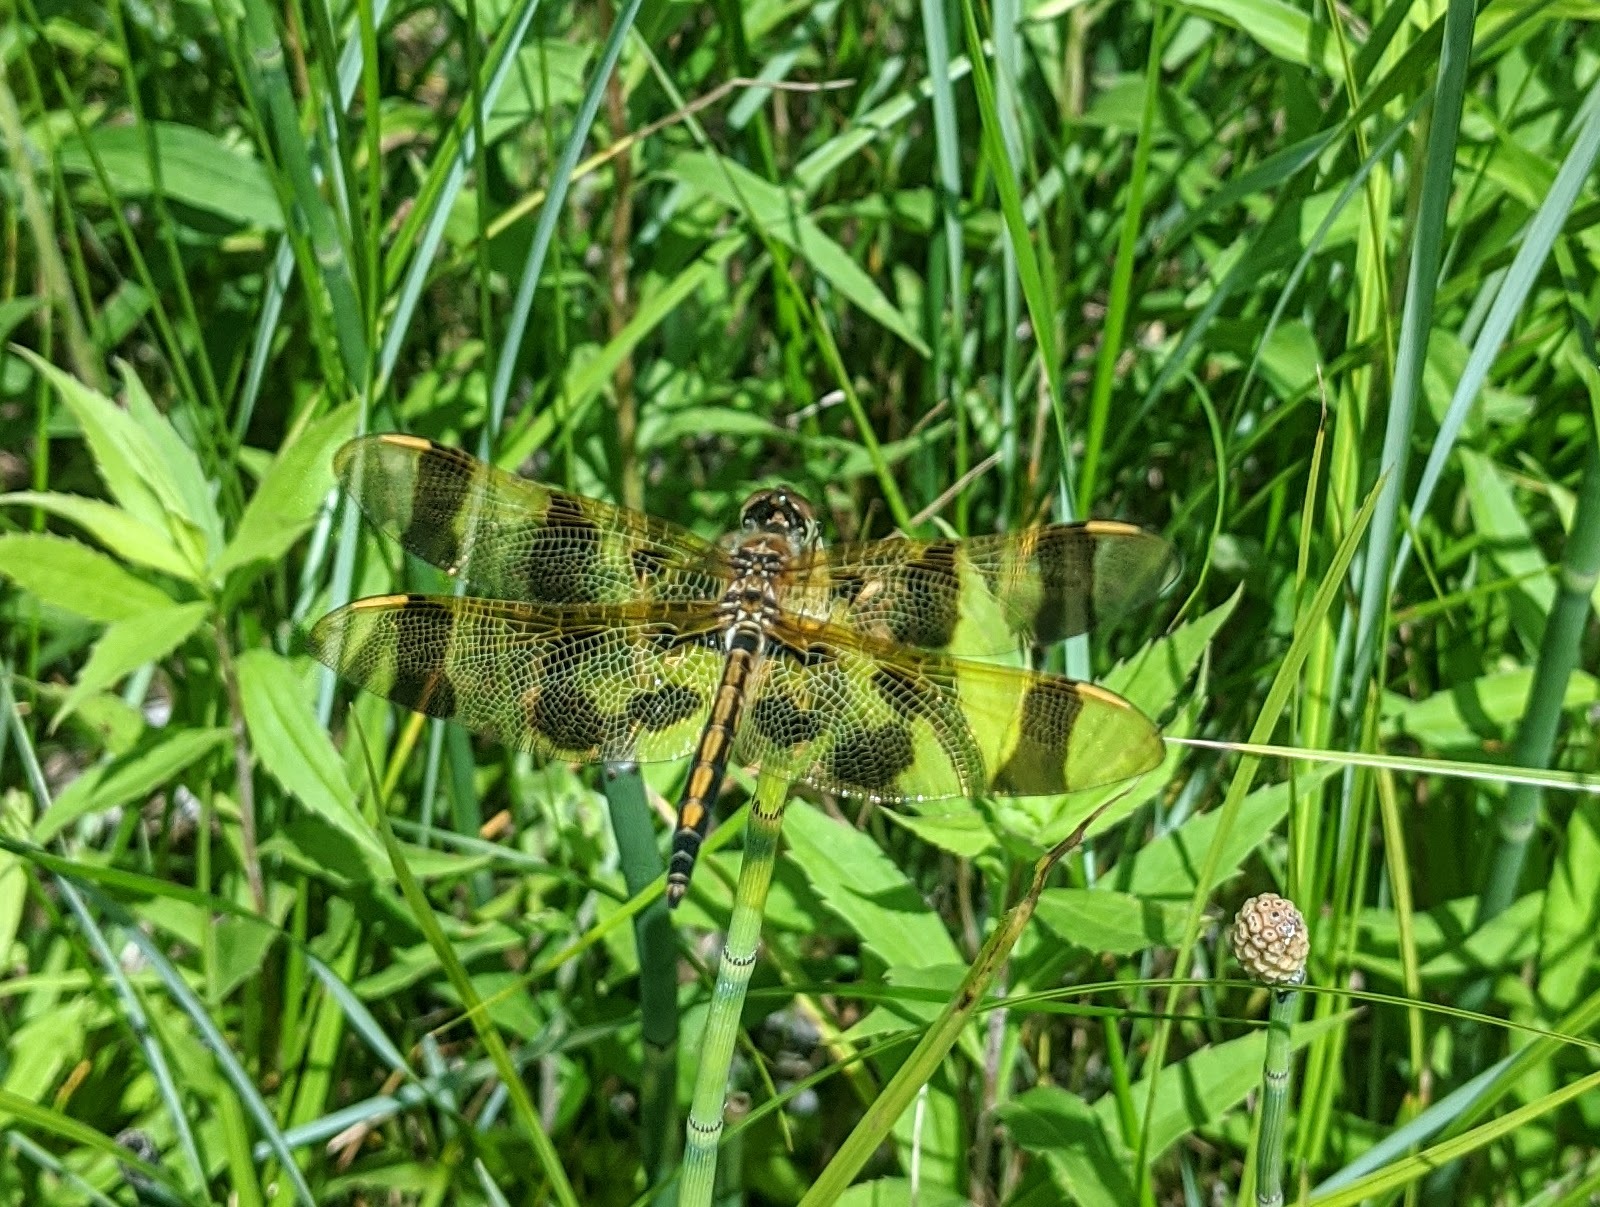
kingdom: Animalia
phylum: Arthropoda
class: Insecta
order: Odonata
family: Libellulidae
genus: Celithemis
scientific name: Celithemis eponina
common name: Halloween pennant
